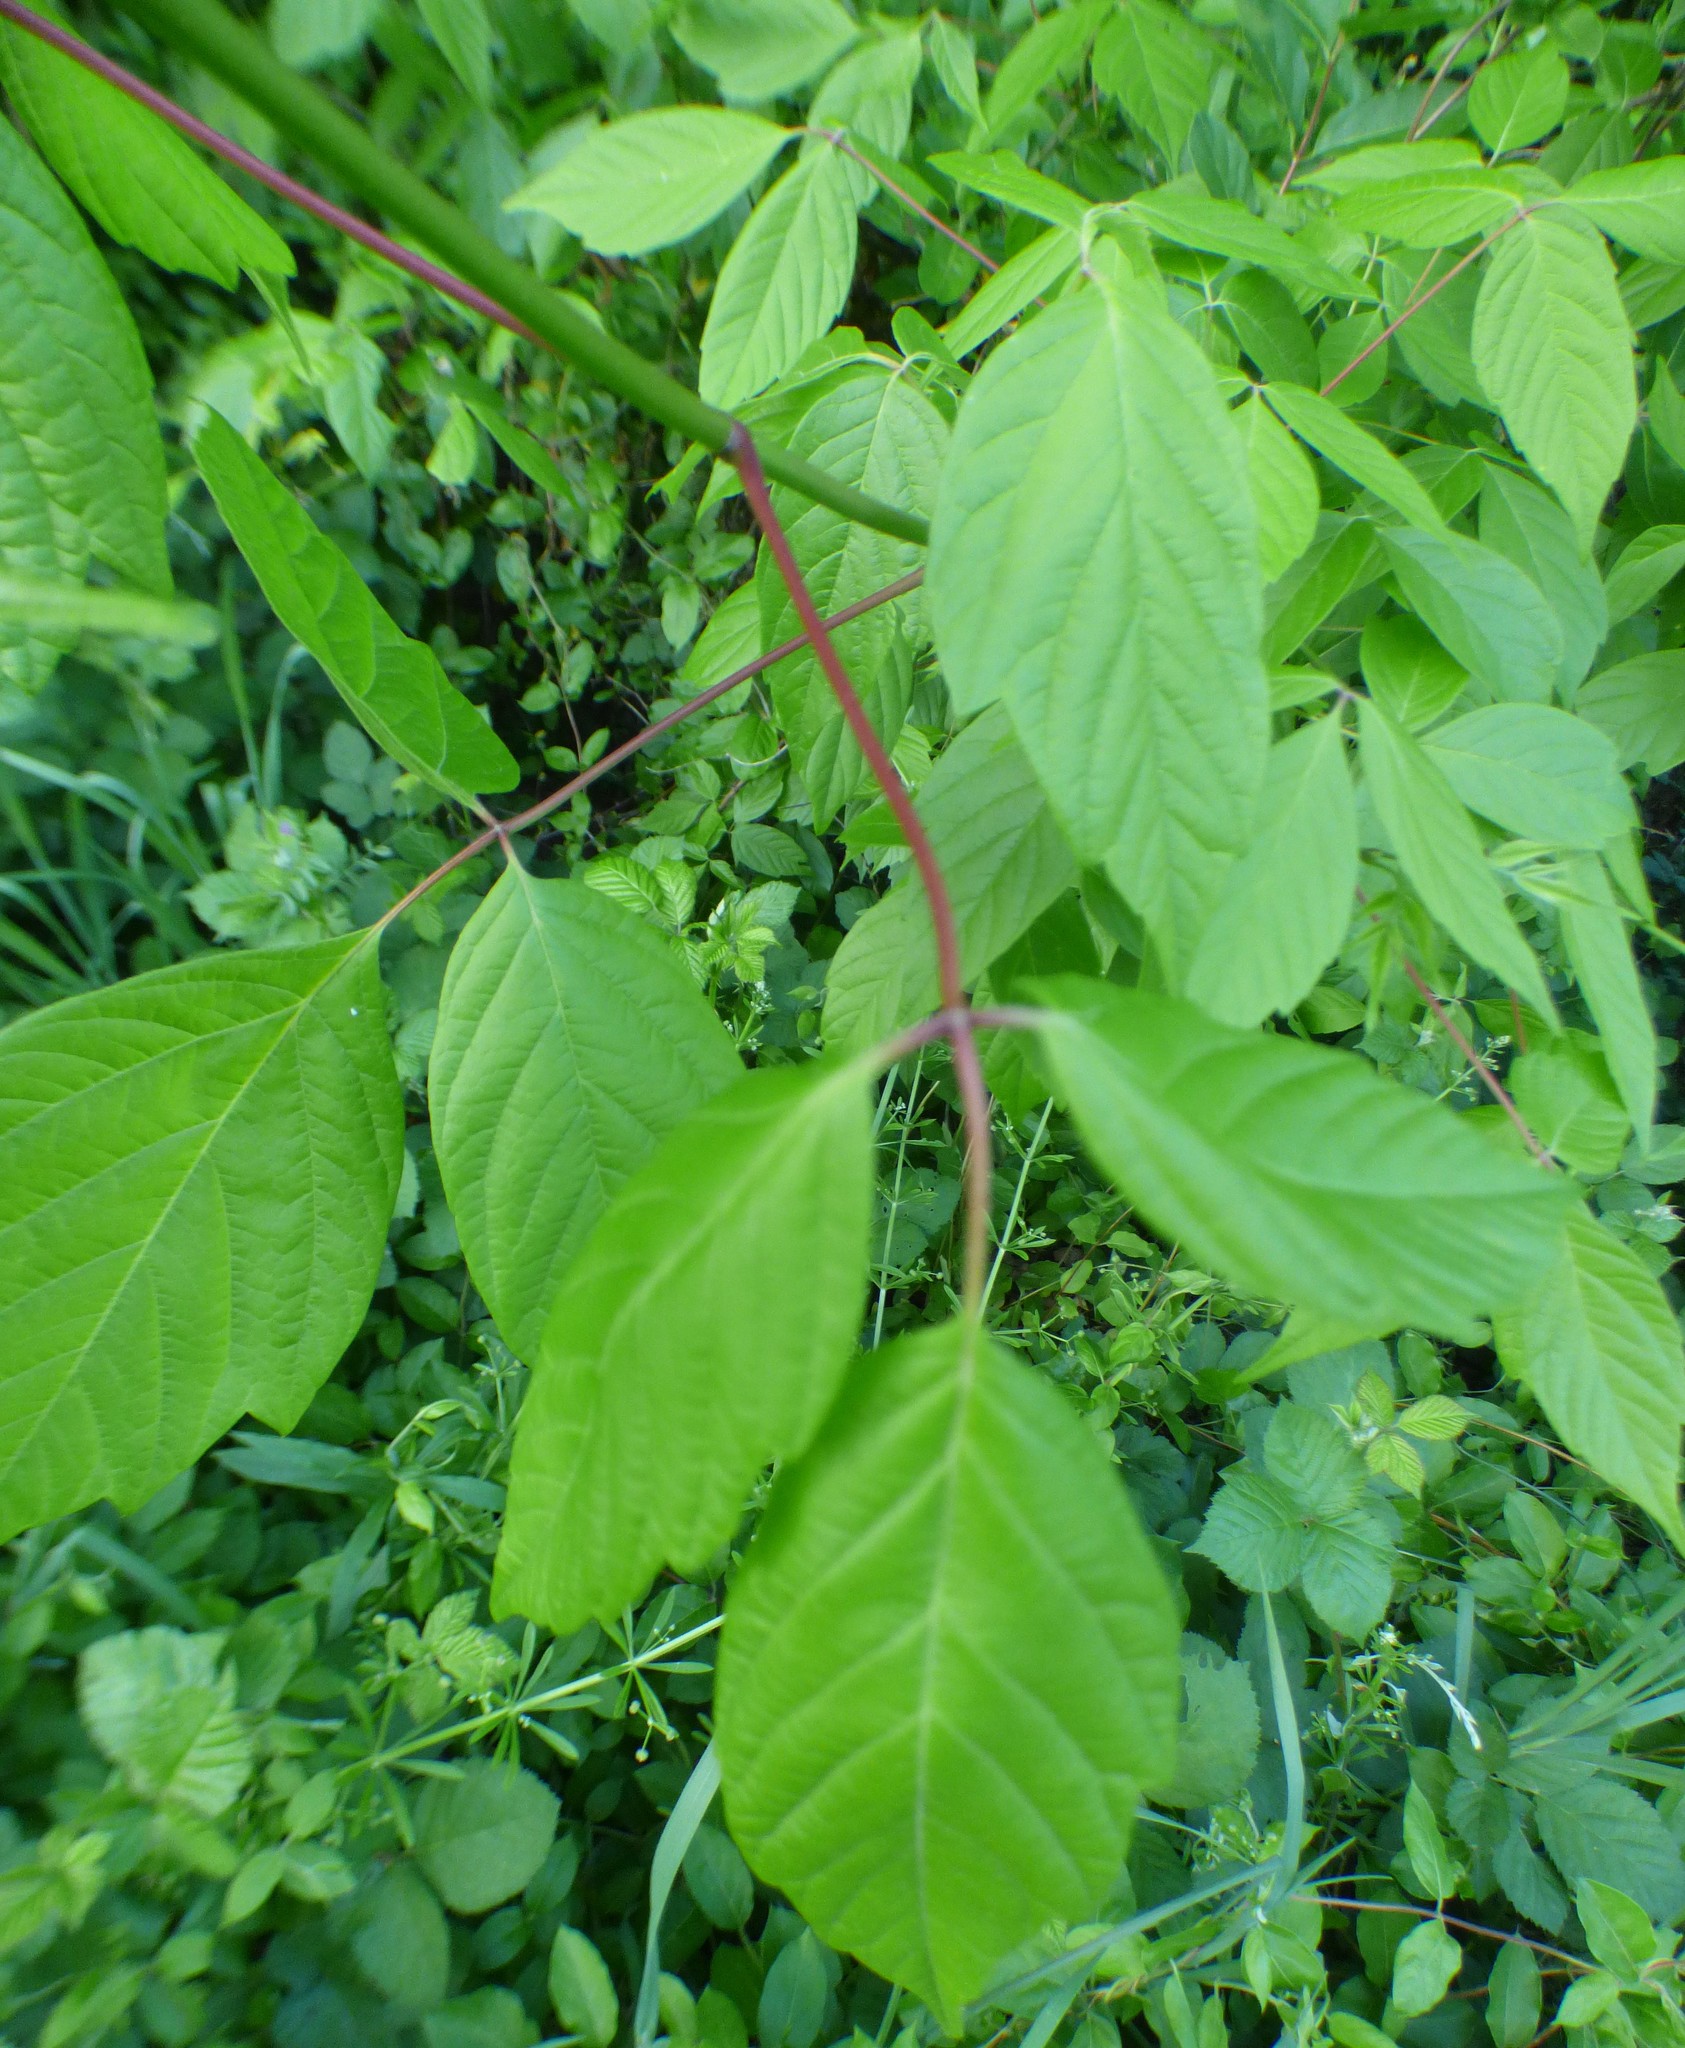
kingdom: Plantae
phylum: Tracheophyta
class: Magnoliopsida
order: Sapindales
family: Sapindaceae
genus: Acer
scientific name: Acer negundo
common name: Ashleaf maple
